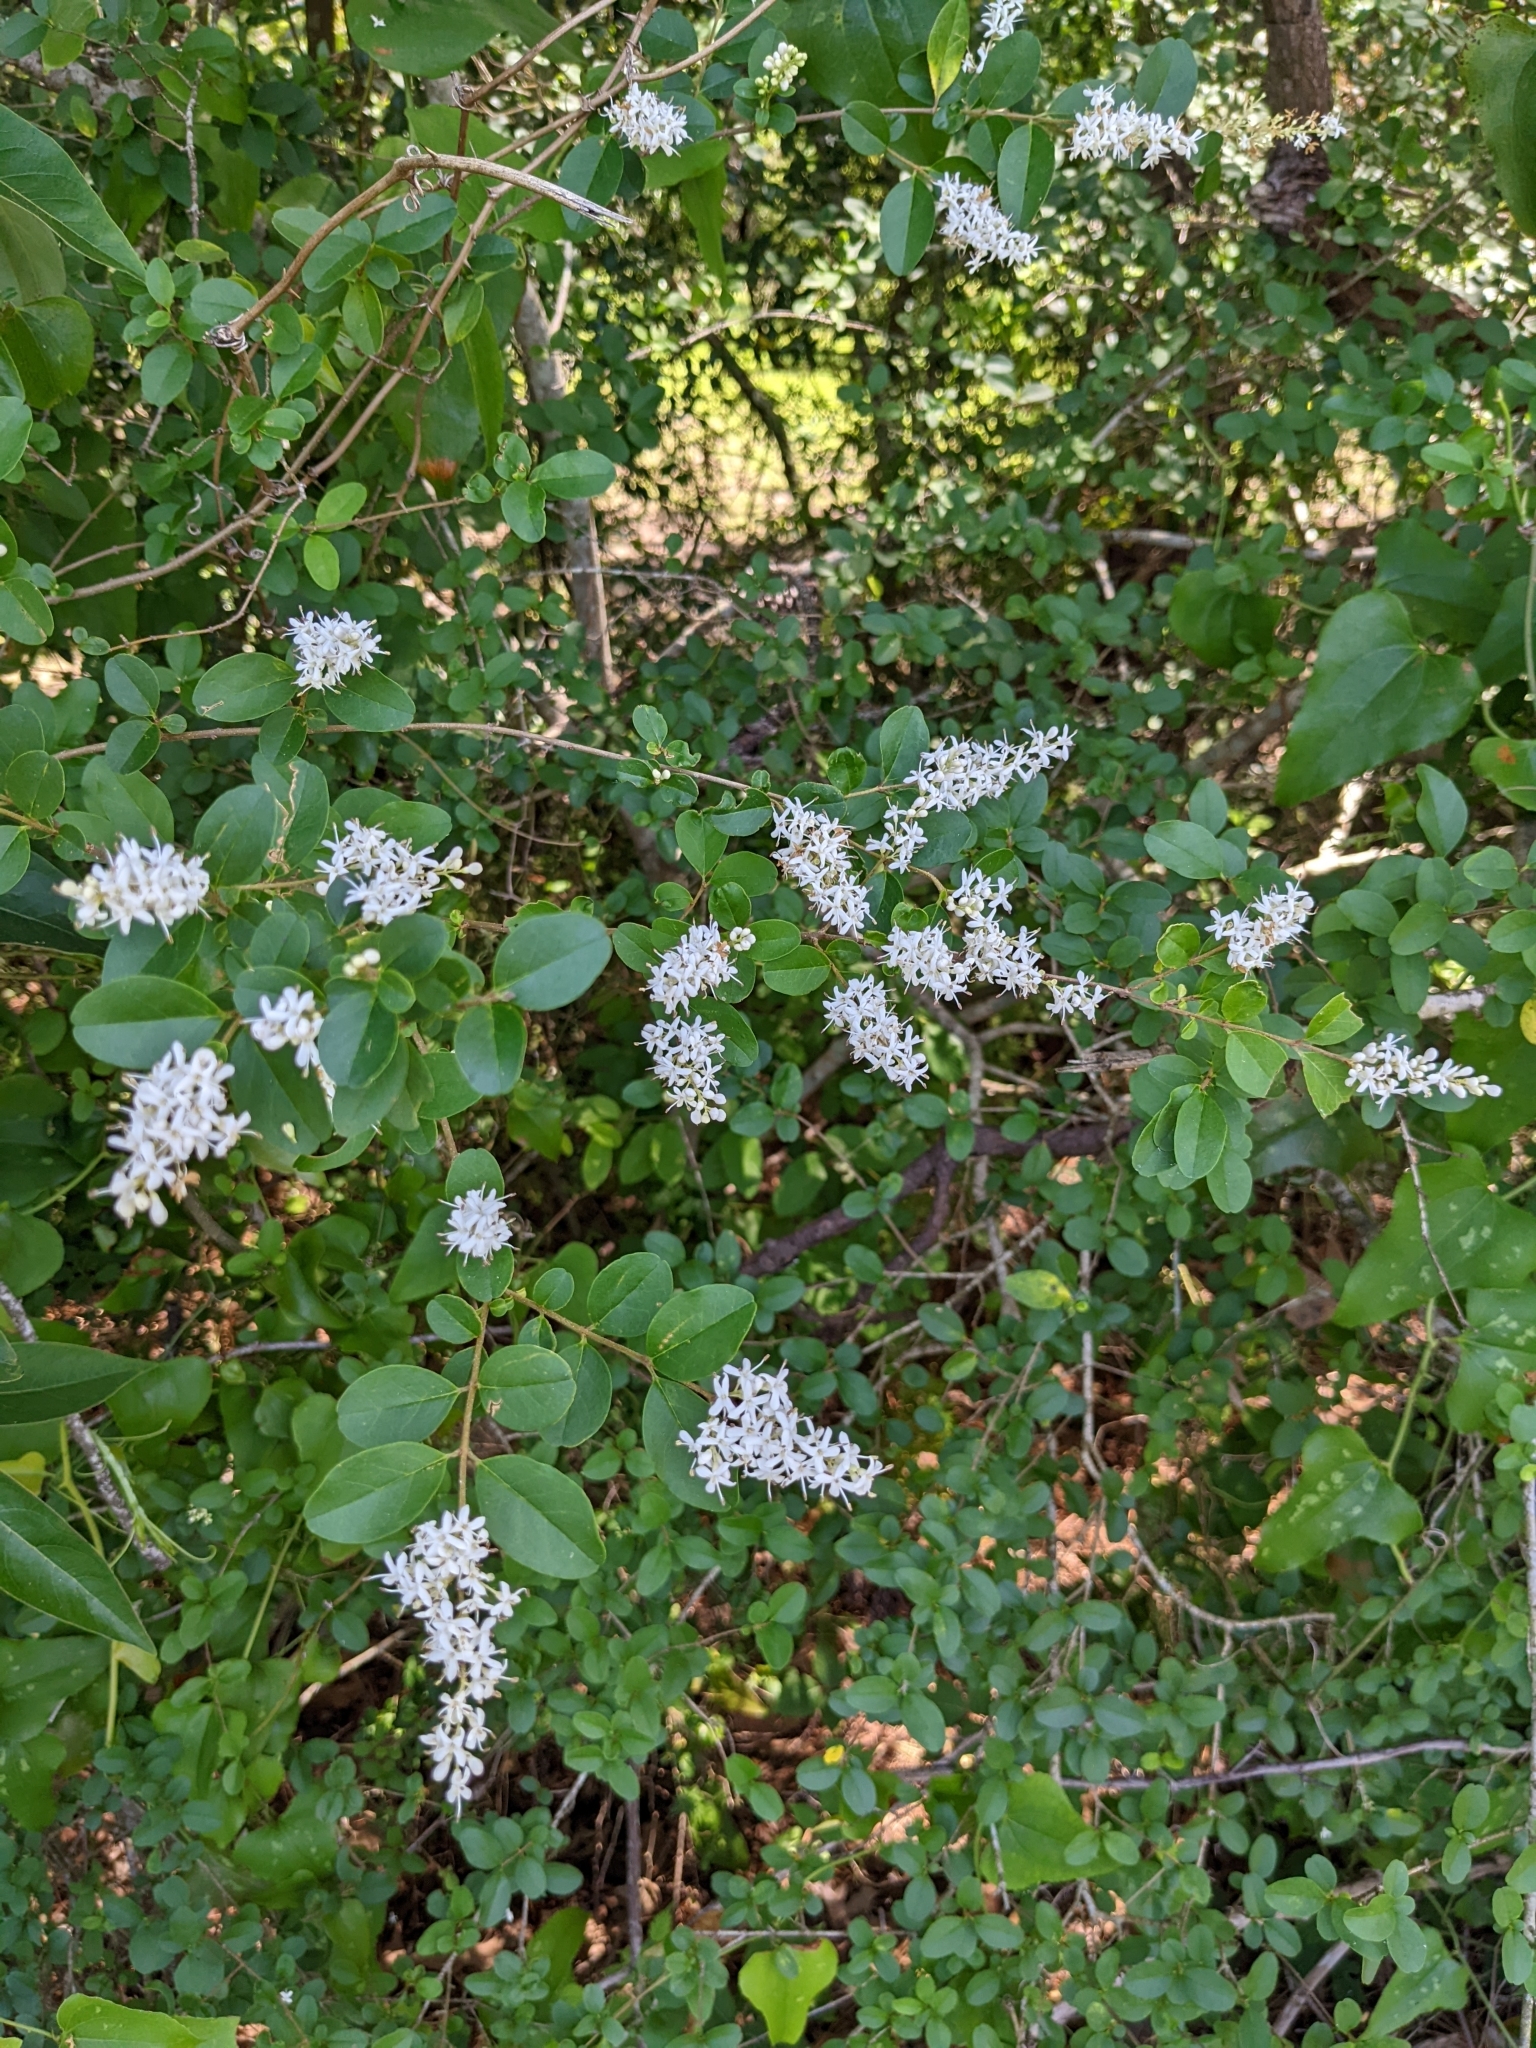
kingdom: Plantae
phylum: Tracheophyta
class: Magnoliopsida
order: Lamiales
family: Oleaceae
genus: Ligustrum
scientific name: Ligustrum sinense
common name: Chinese privet
